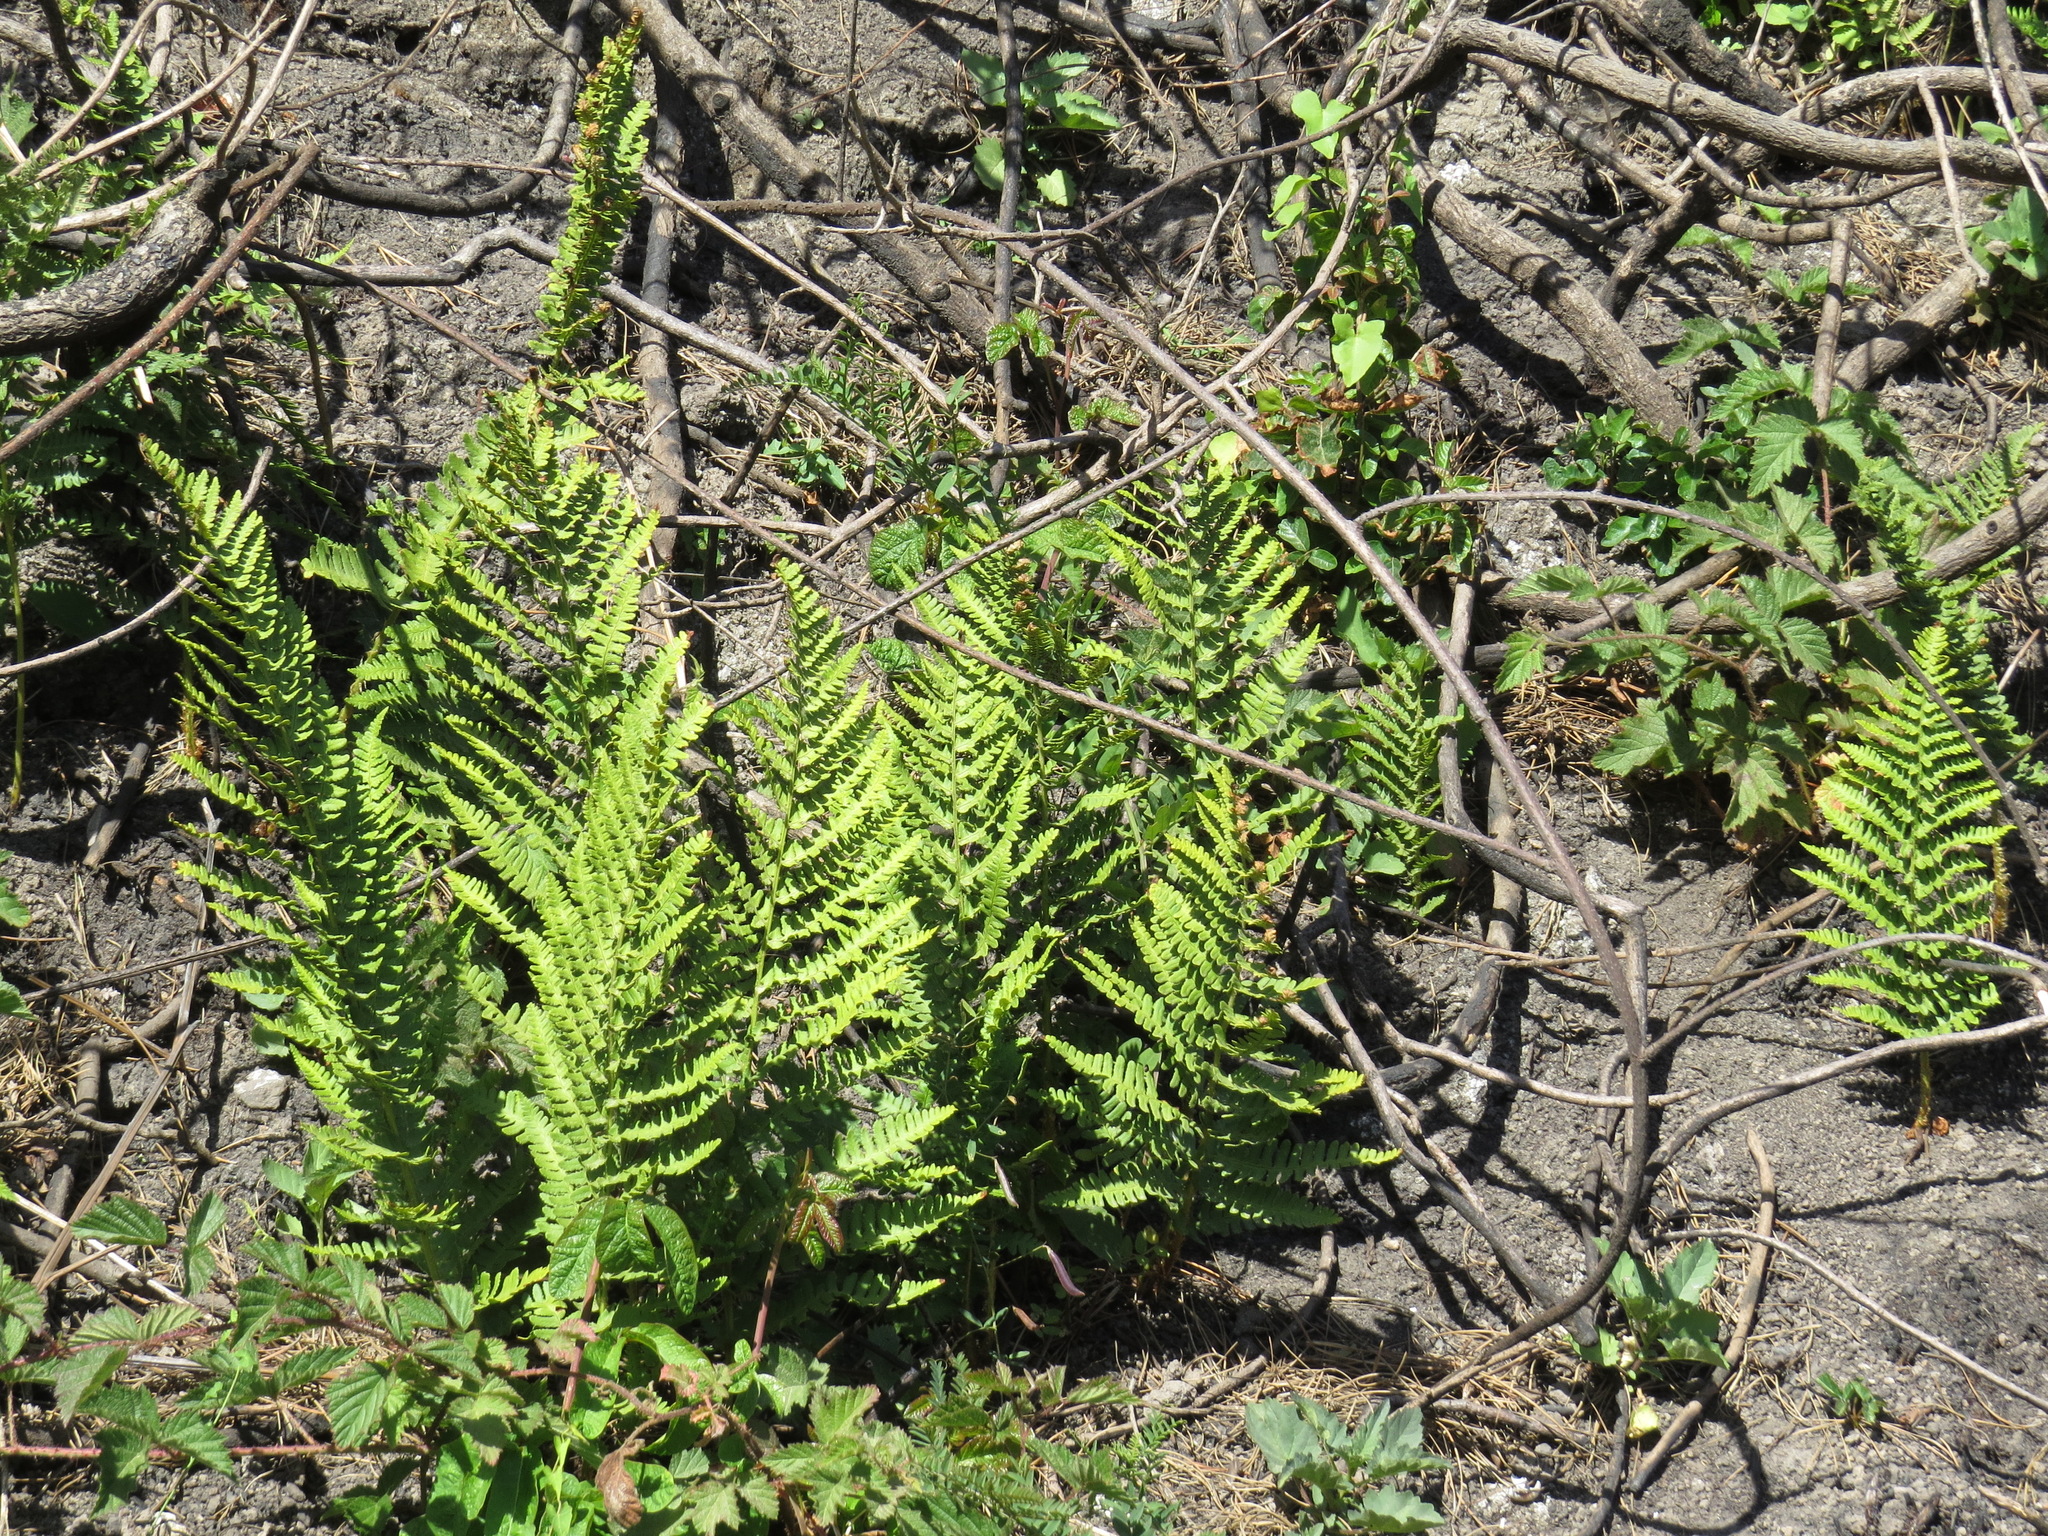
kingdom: Plantae
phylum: Tracheophyta
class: Polypodiopsida
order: Polypodiales
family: Dryopteridaceae
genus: Dryopteris
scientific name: Dryopteris arguta
